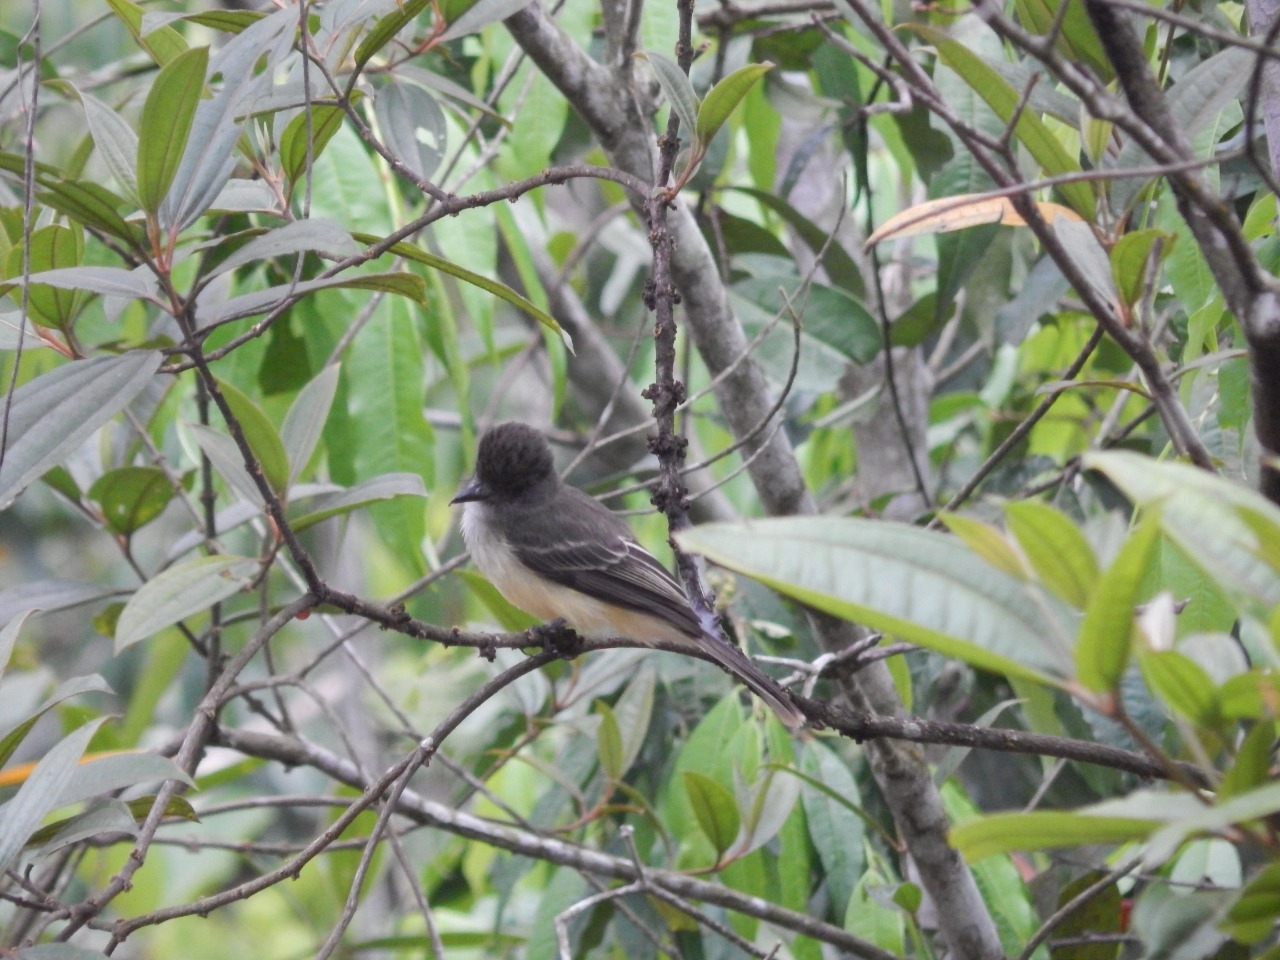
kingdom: Animalia
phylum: Chordata
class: Aves
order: Passeriformes
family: Tyrannidae
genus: Myiarchus
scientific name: Myiarchus apicalis
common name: Apical flycatcher
